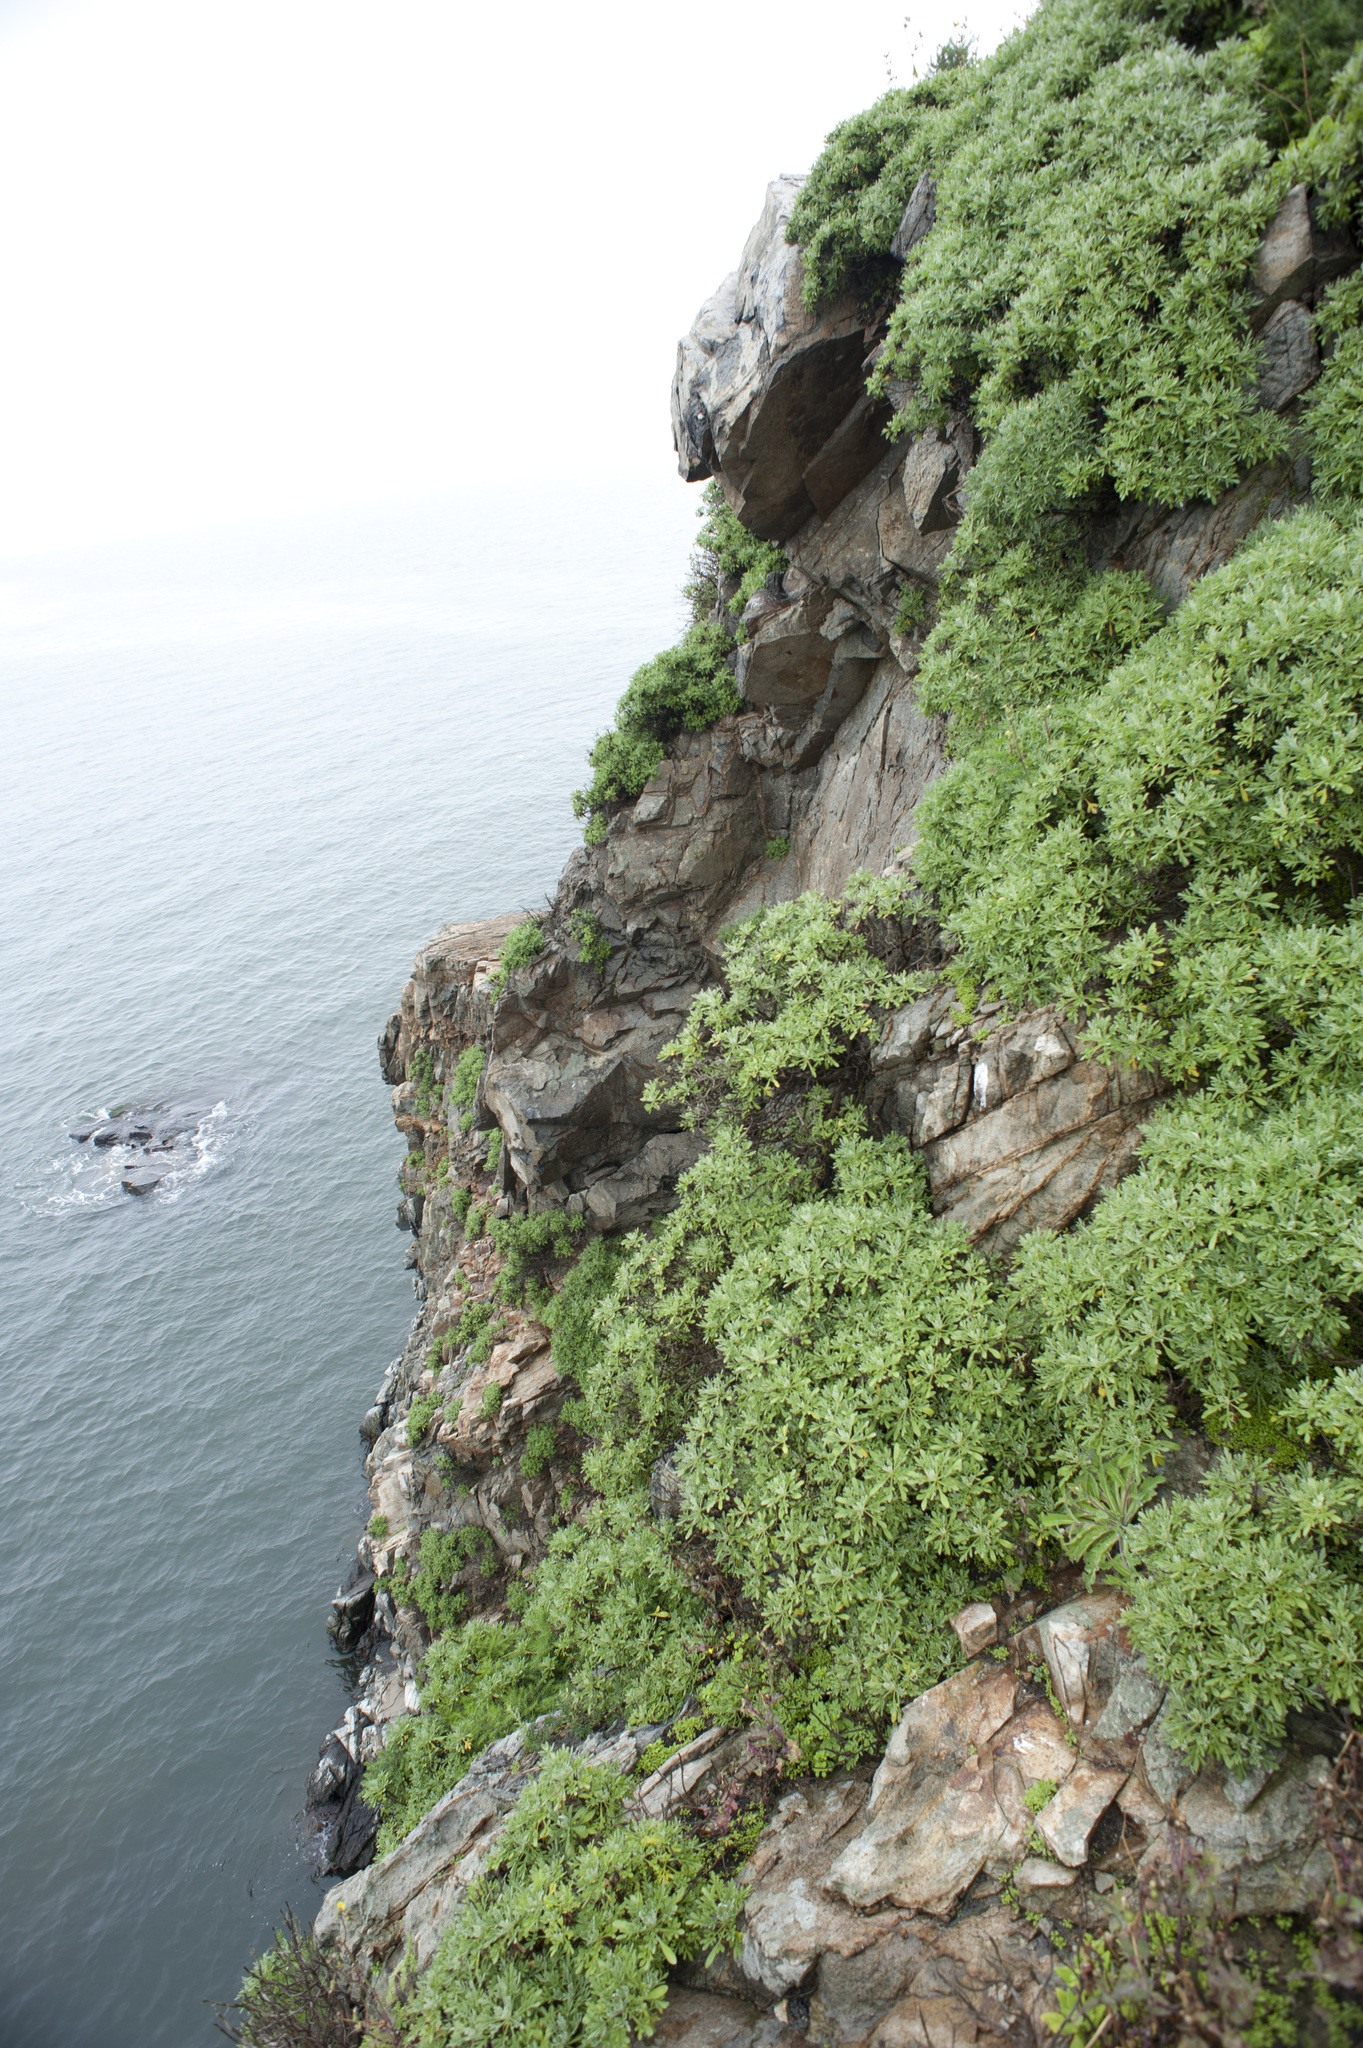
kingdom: Plantae
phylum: Tracheophyta
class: Magnoliopsida
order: Asterales
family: Asteraceae
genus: Crossostephium
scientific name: Crossostephium chinense
